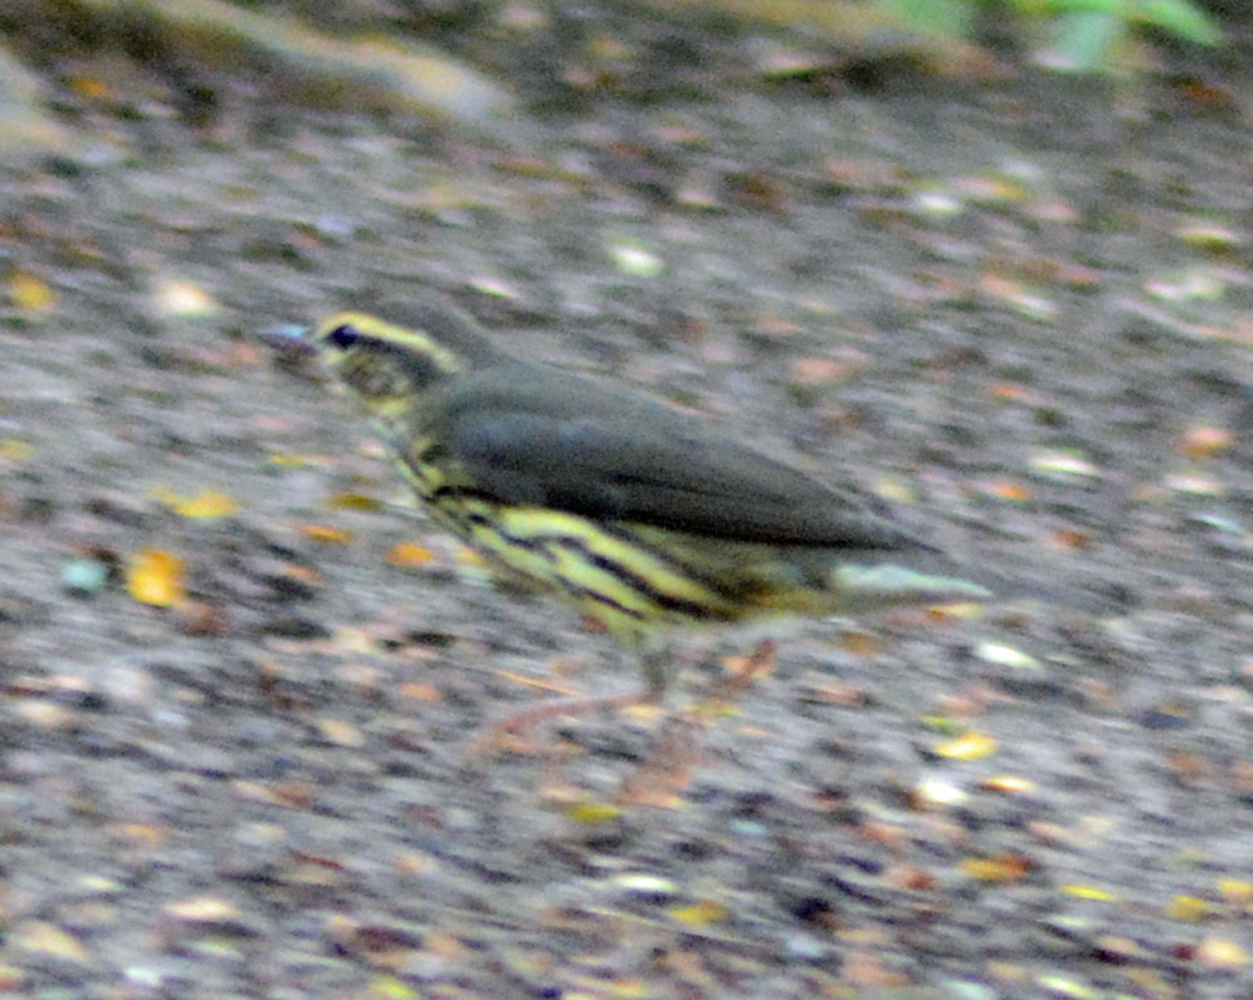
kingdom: Animalia
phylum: Chordata
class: Aves
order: Passeriformes
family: Parulidae
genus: Parkesia
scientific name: Parkesia noveboracensis
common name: Northern waterthrush
